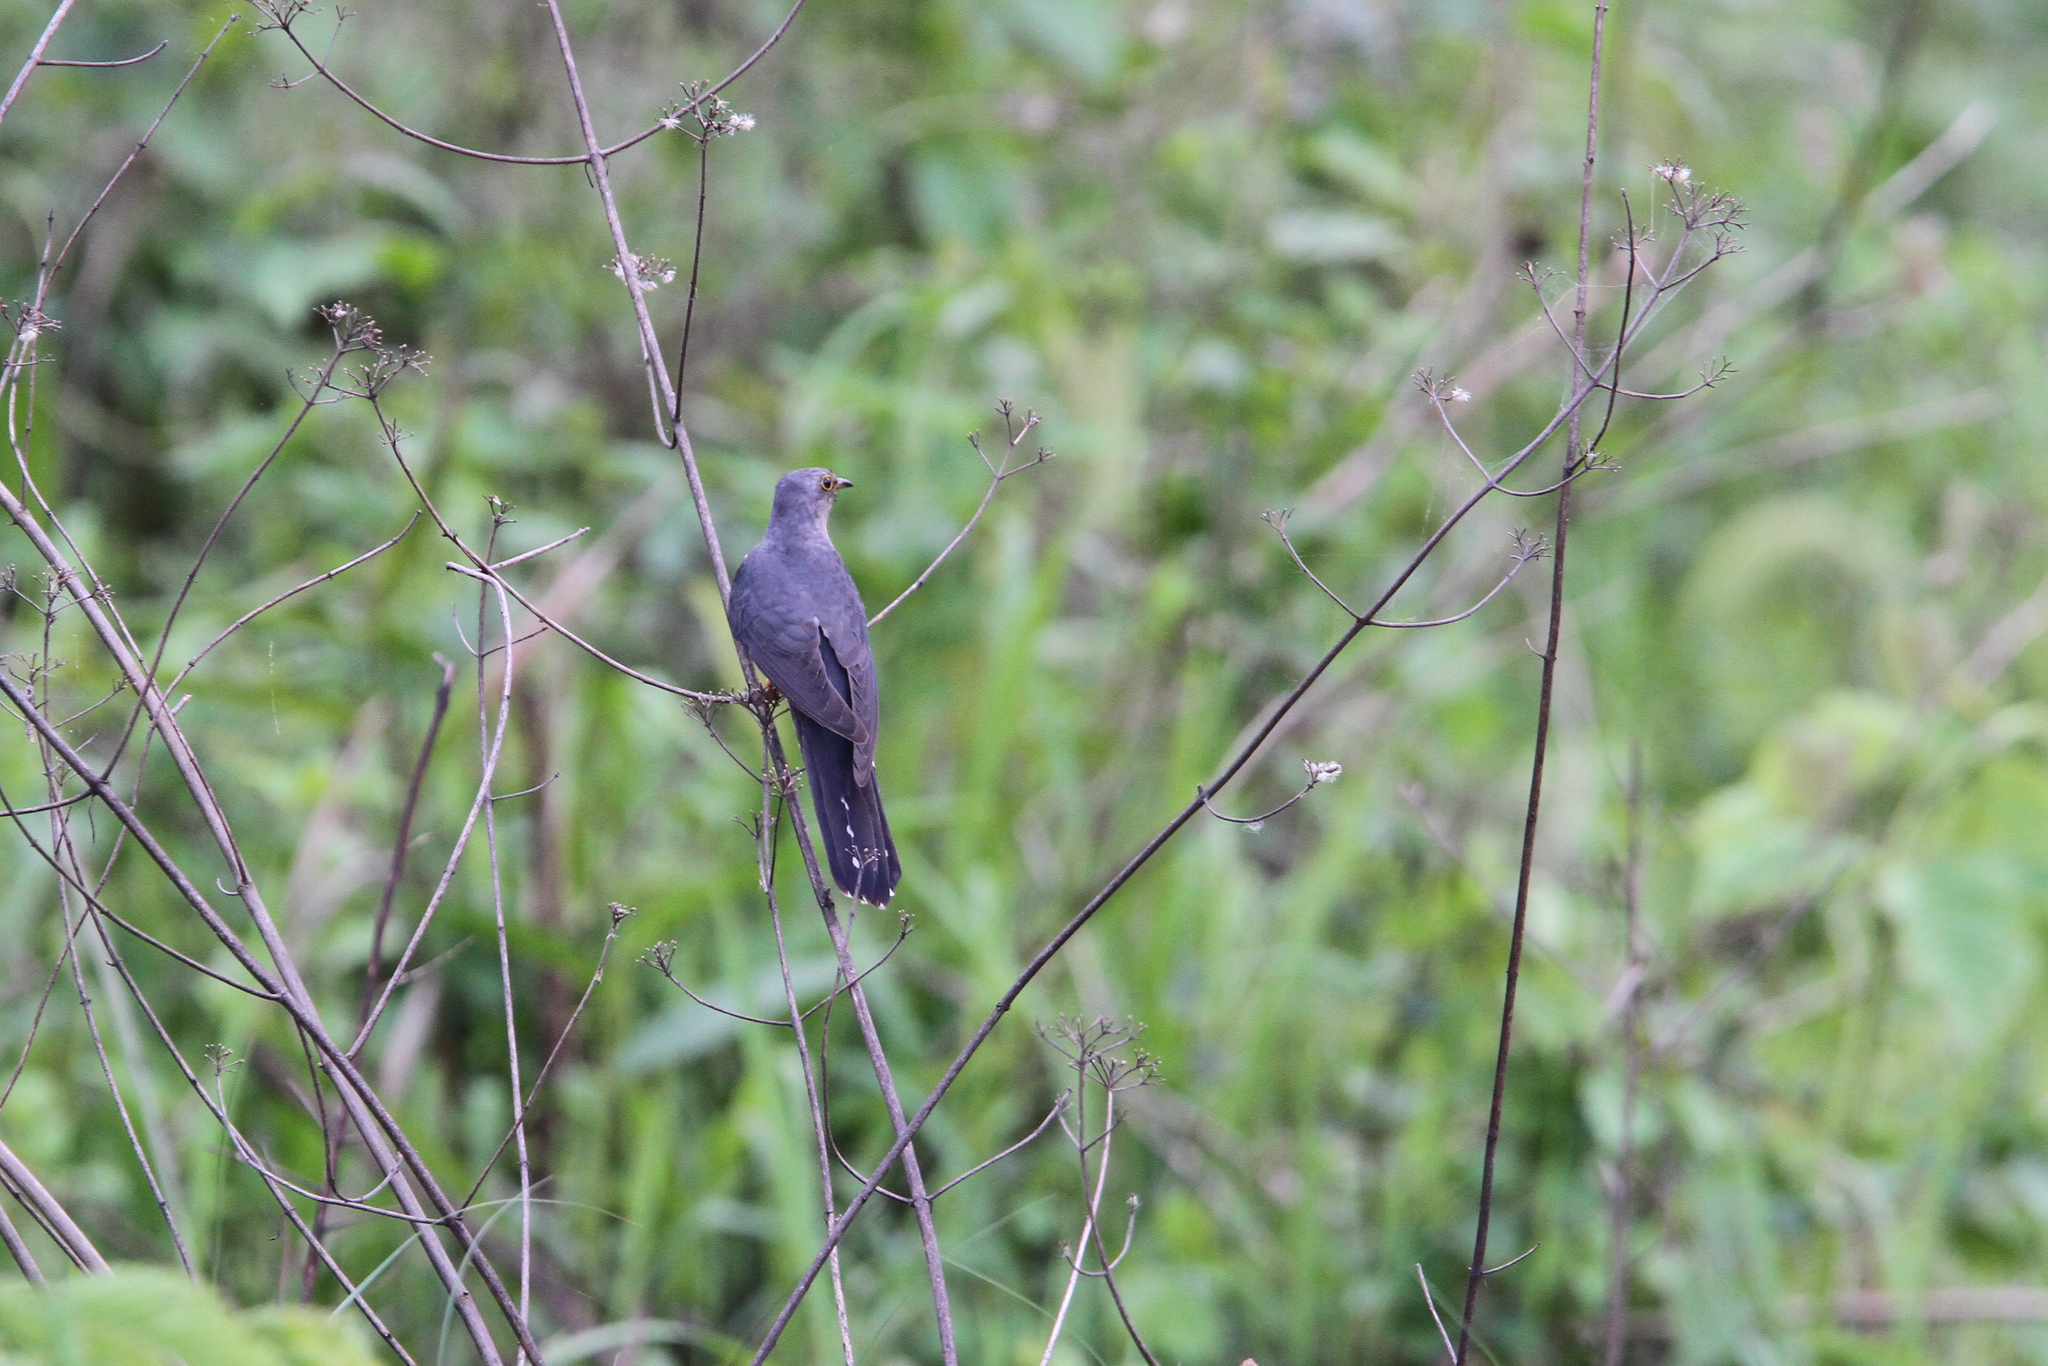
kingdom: Animalia
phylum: Chordata
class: Aves
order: Cuculiformes
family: Cuculidae
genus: Cuculus
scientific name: Cuculus poliocephalus
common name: Lesser cuckoo
